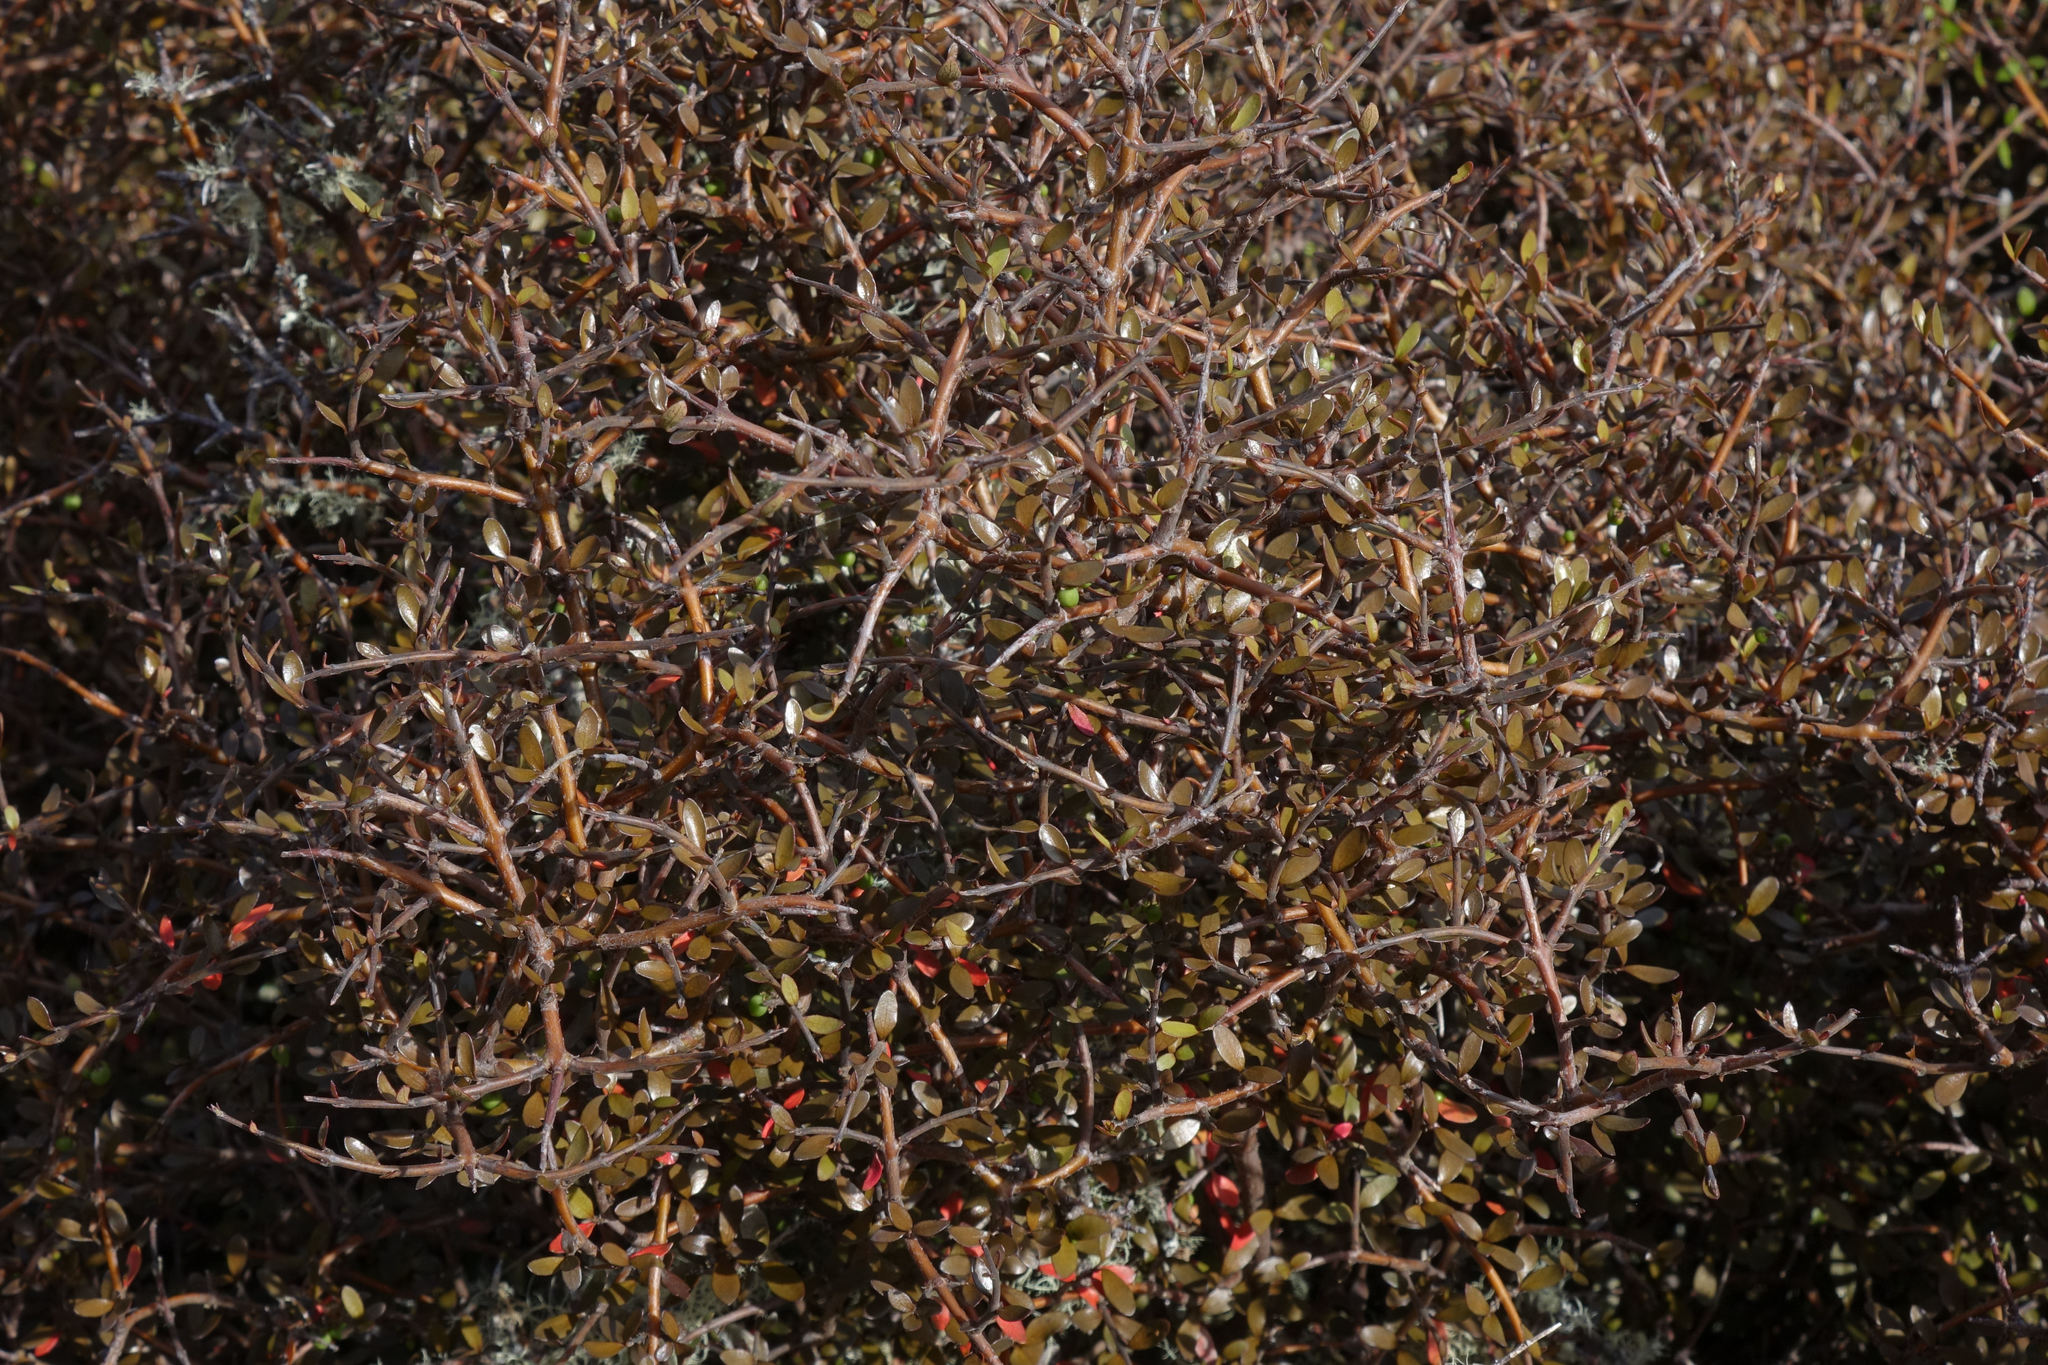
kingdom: Plantae
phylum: Tracheophyta
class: Magnoliopsida
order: Oxalidales
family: Elaeocarpaceae
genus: Aristotelia
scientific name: Aristotelia fruticosa
